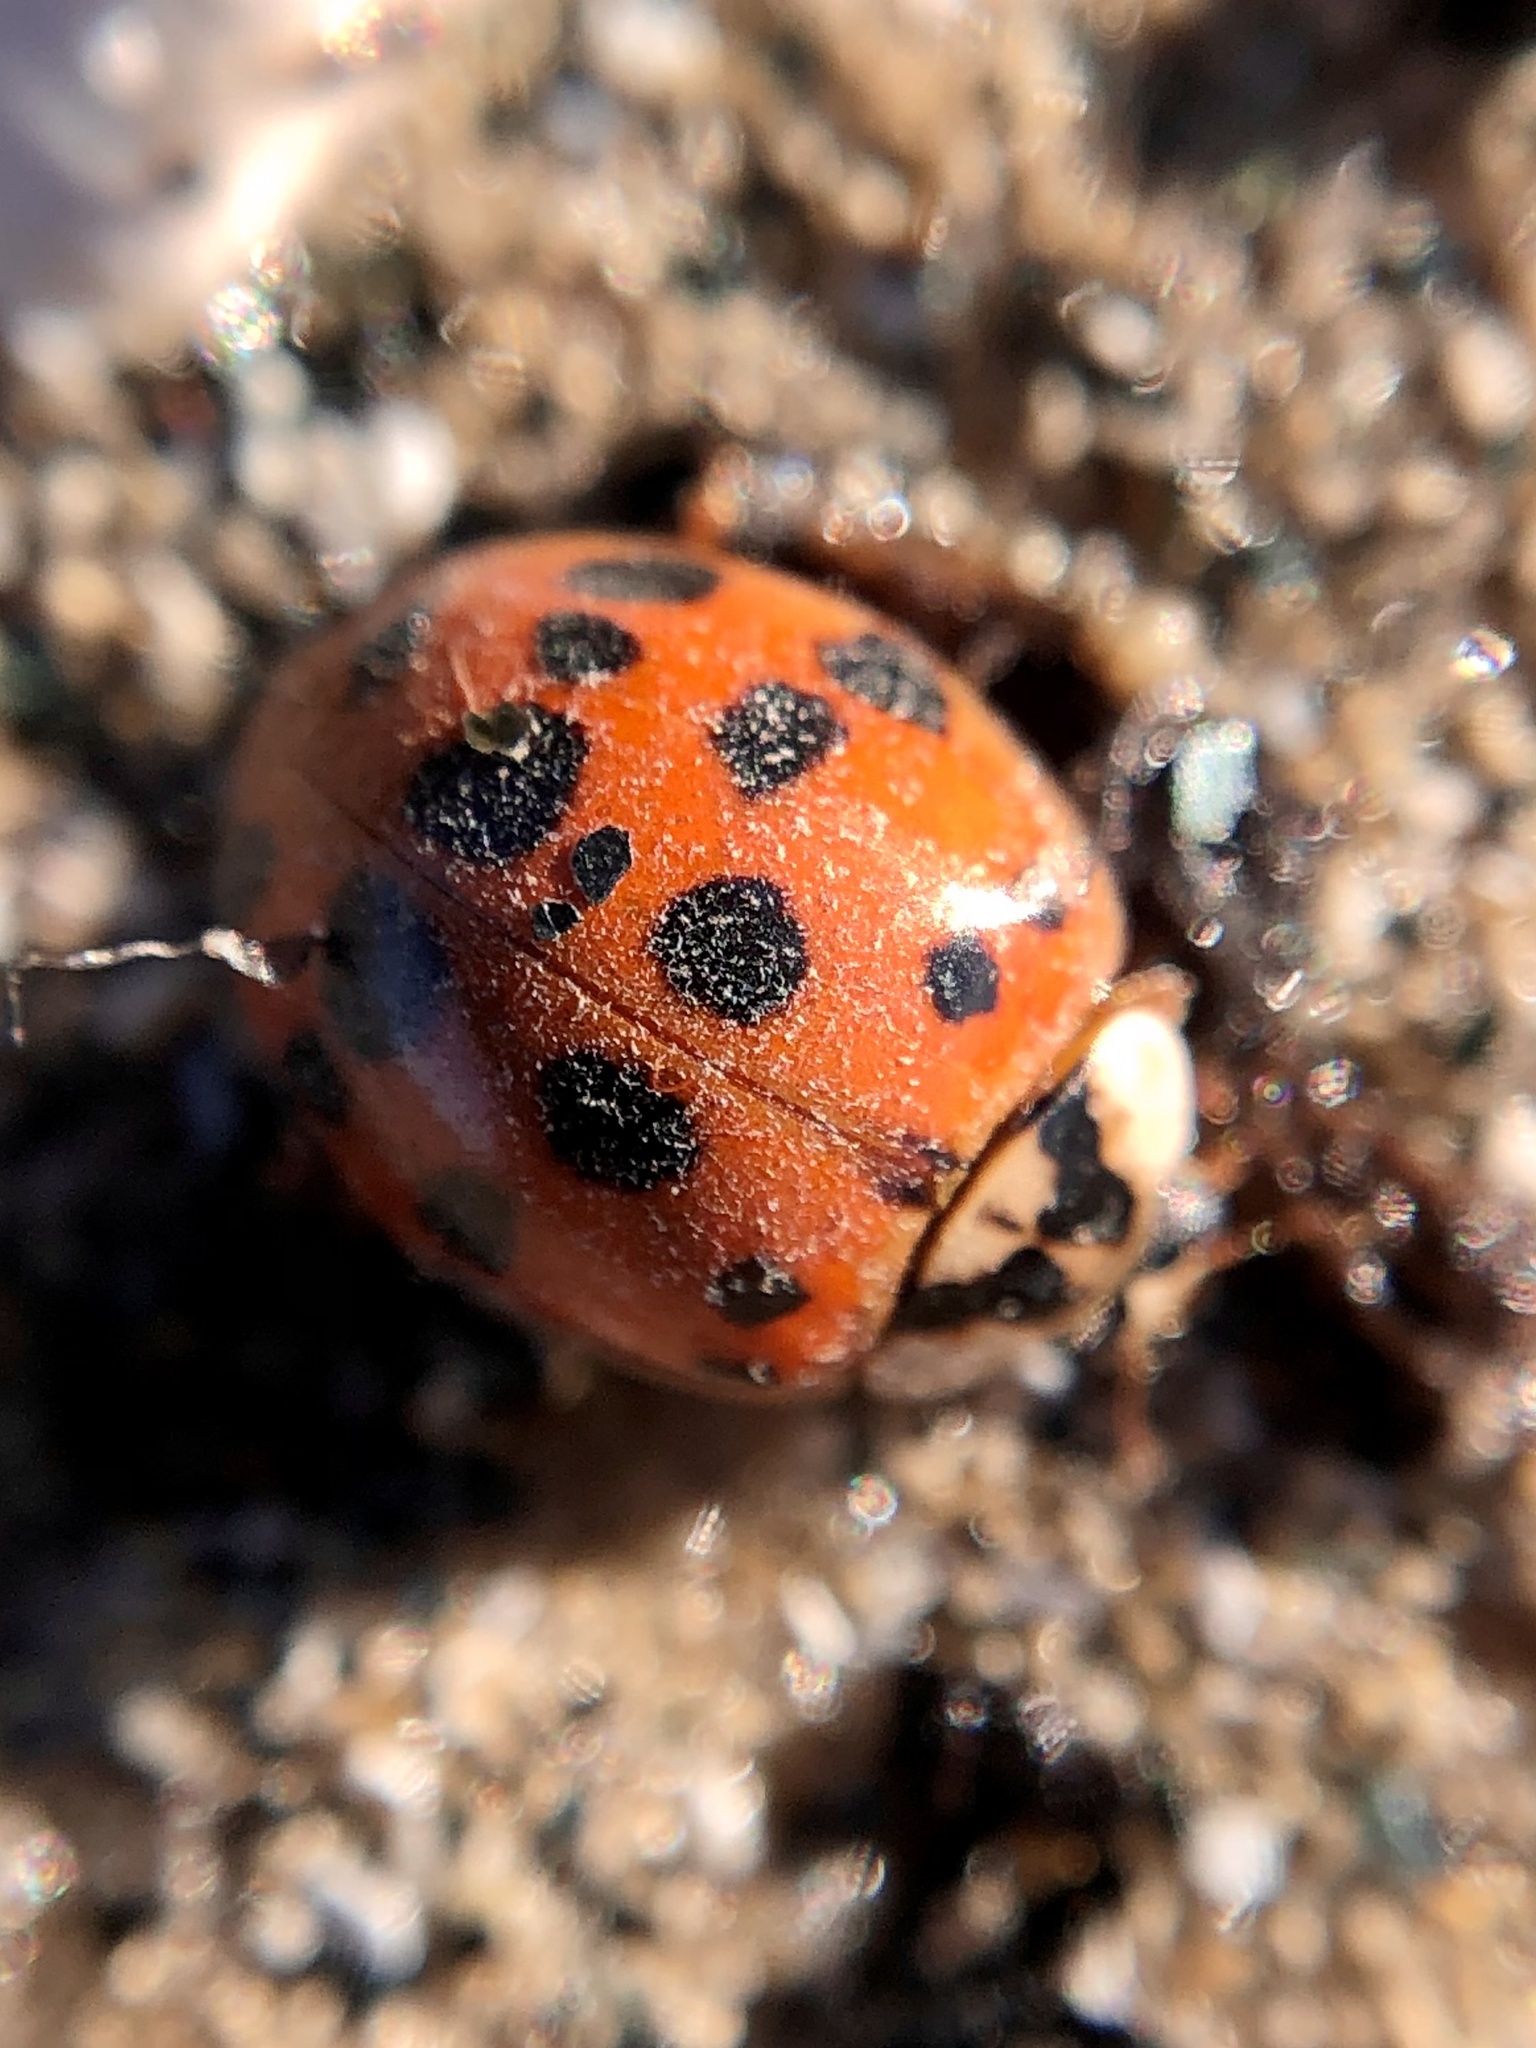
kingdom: Animalia
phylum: Arthropoda
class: Insecta
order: Coleoptera
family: Coccinellidae
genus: Harmonia
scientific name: Harmonia axyridis
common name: Harlequin ladybird
